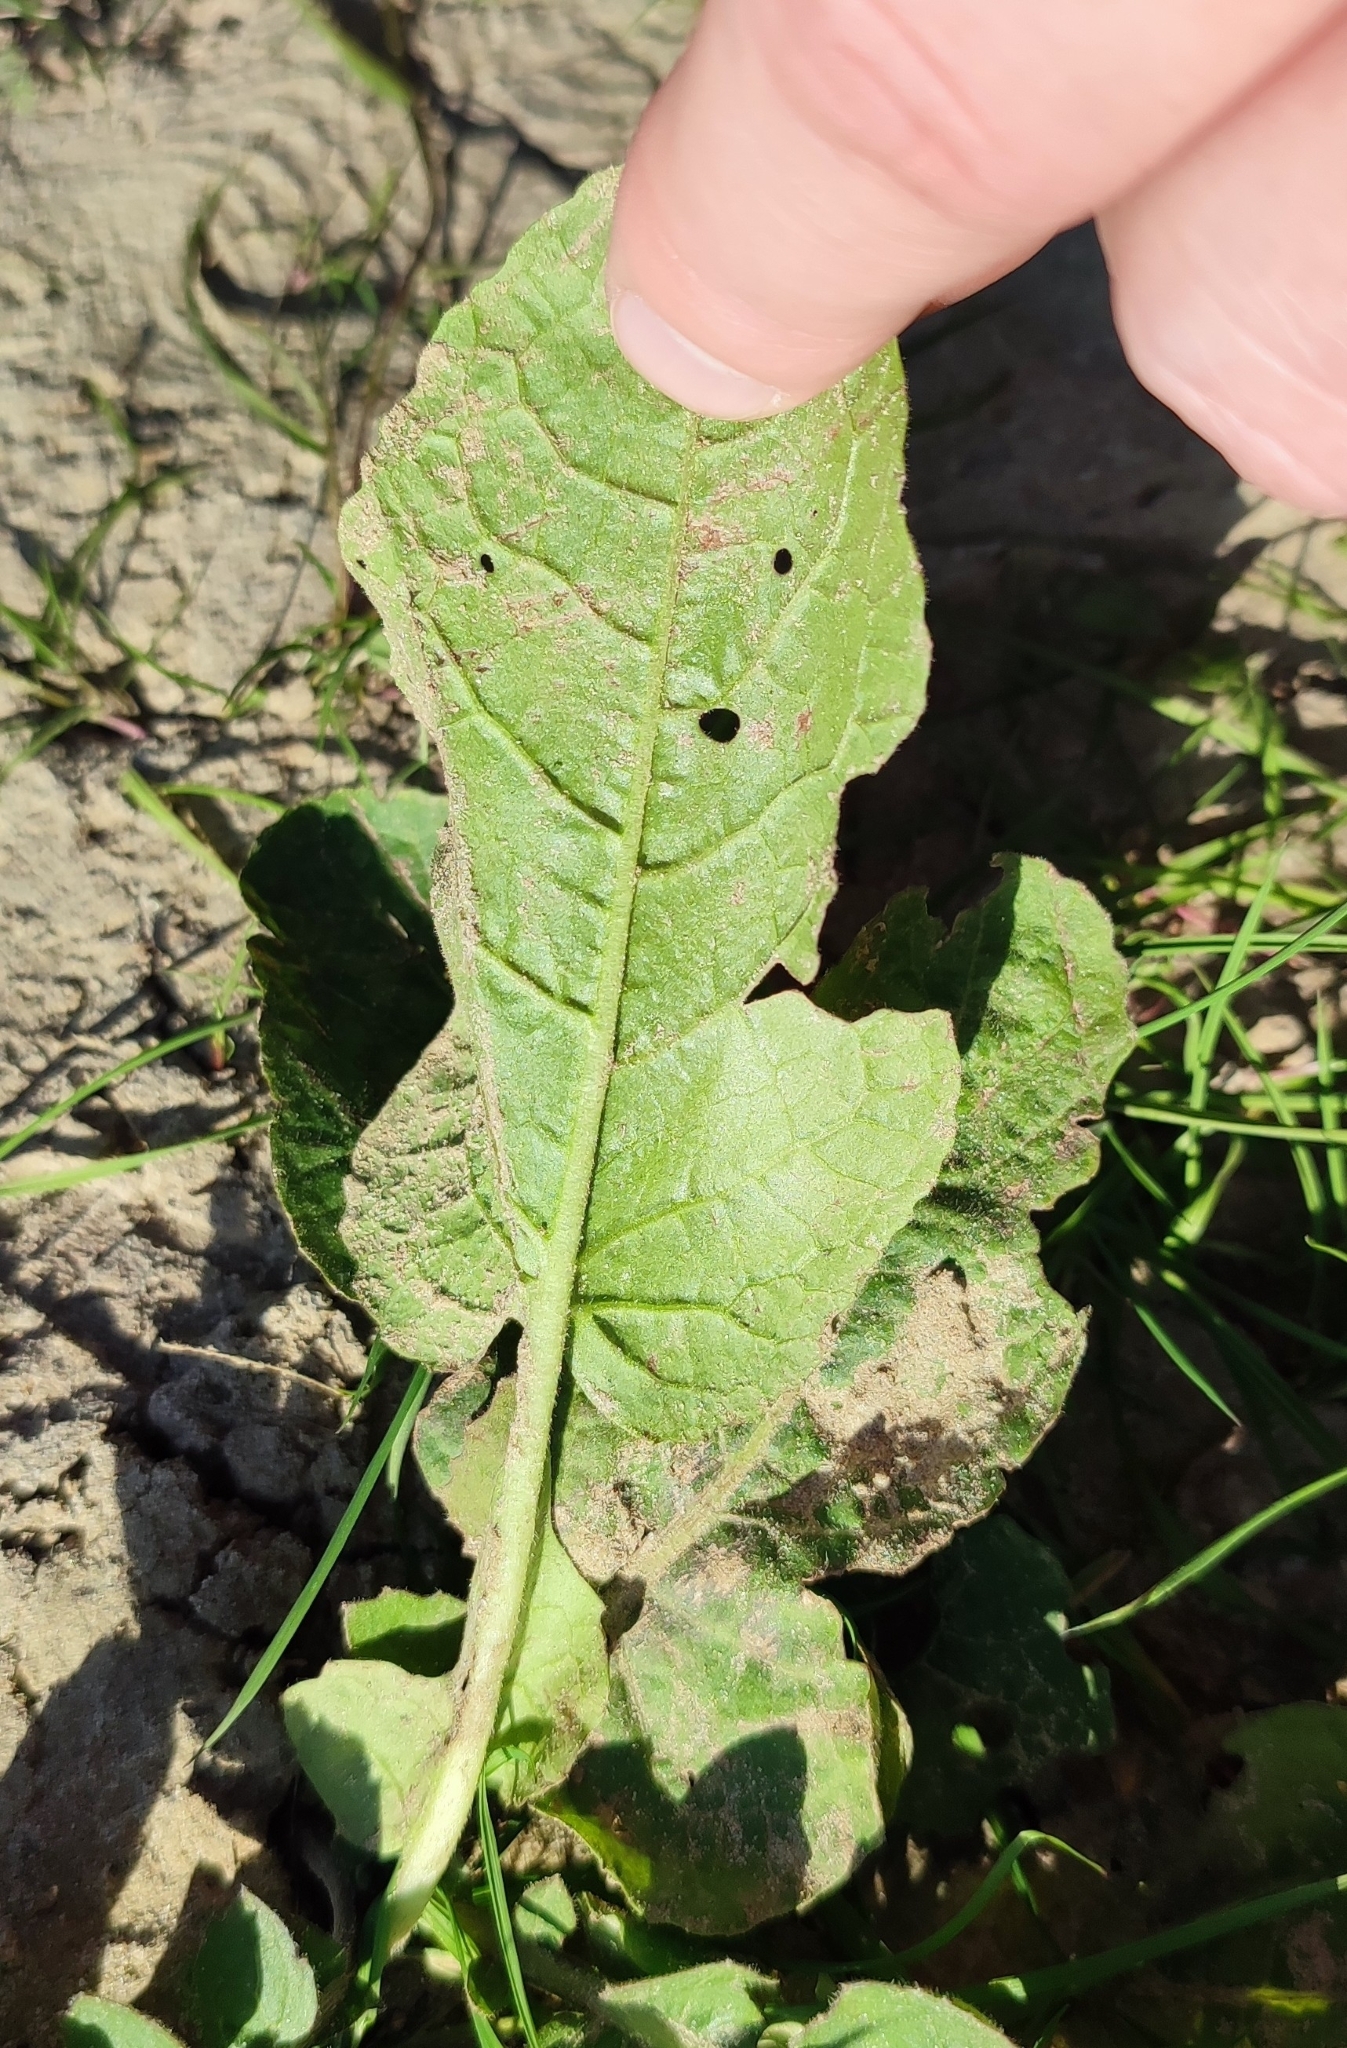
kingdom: Plantae
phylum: Tracheophyta
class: Magnoliopsida
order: Brassicales
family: Brassicaceae
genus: Rorippa
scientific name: Rorippa amphibia
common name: Great yellow-cress
